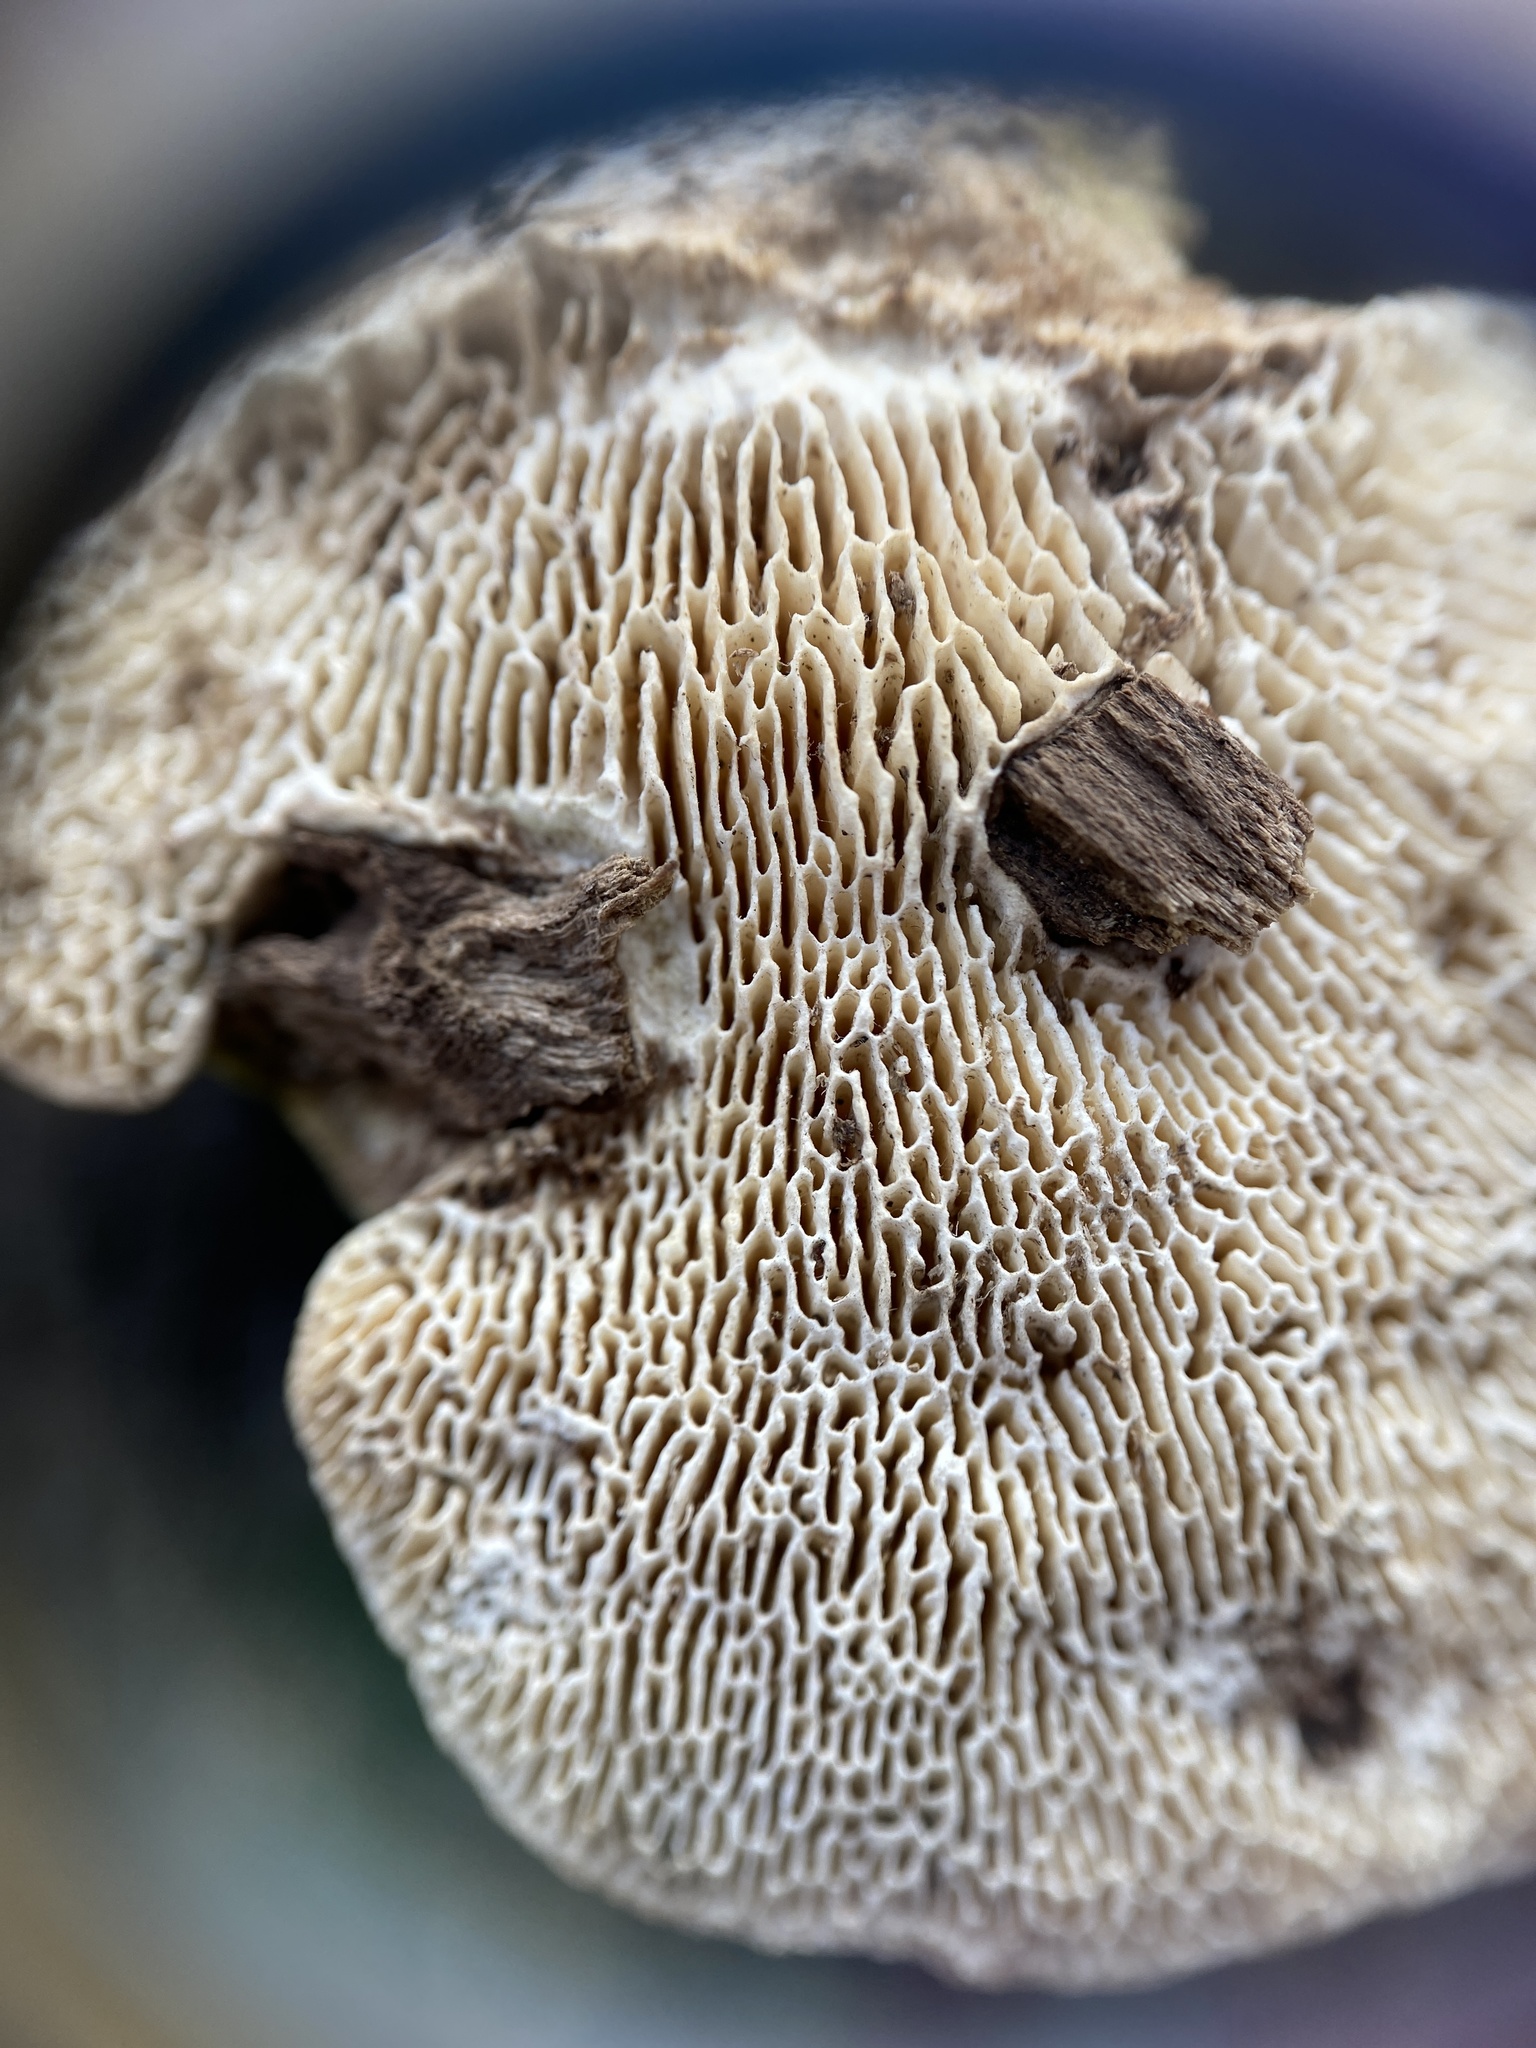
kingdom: Fungi
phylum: Basidiomycota
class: Agaricomycetes
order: Polyporales
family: Polyporaceae
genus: Trametes
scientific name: Trametes gibbosa
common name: Lumpy bracket
